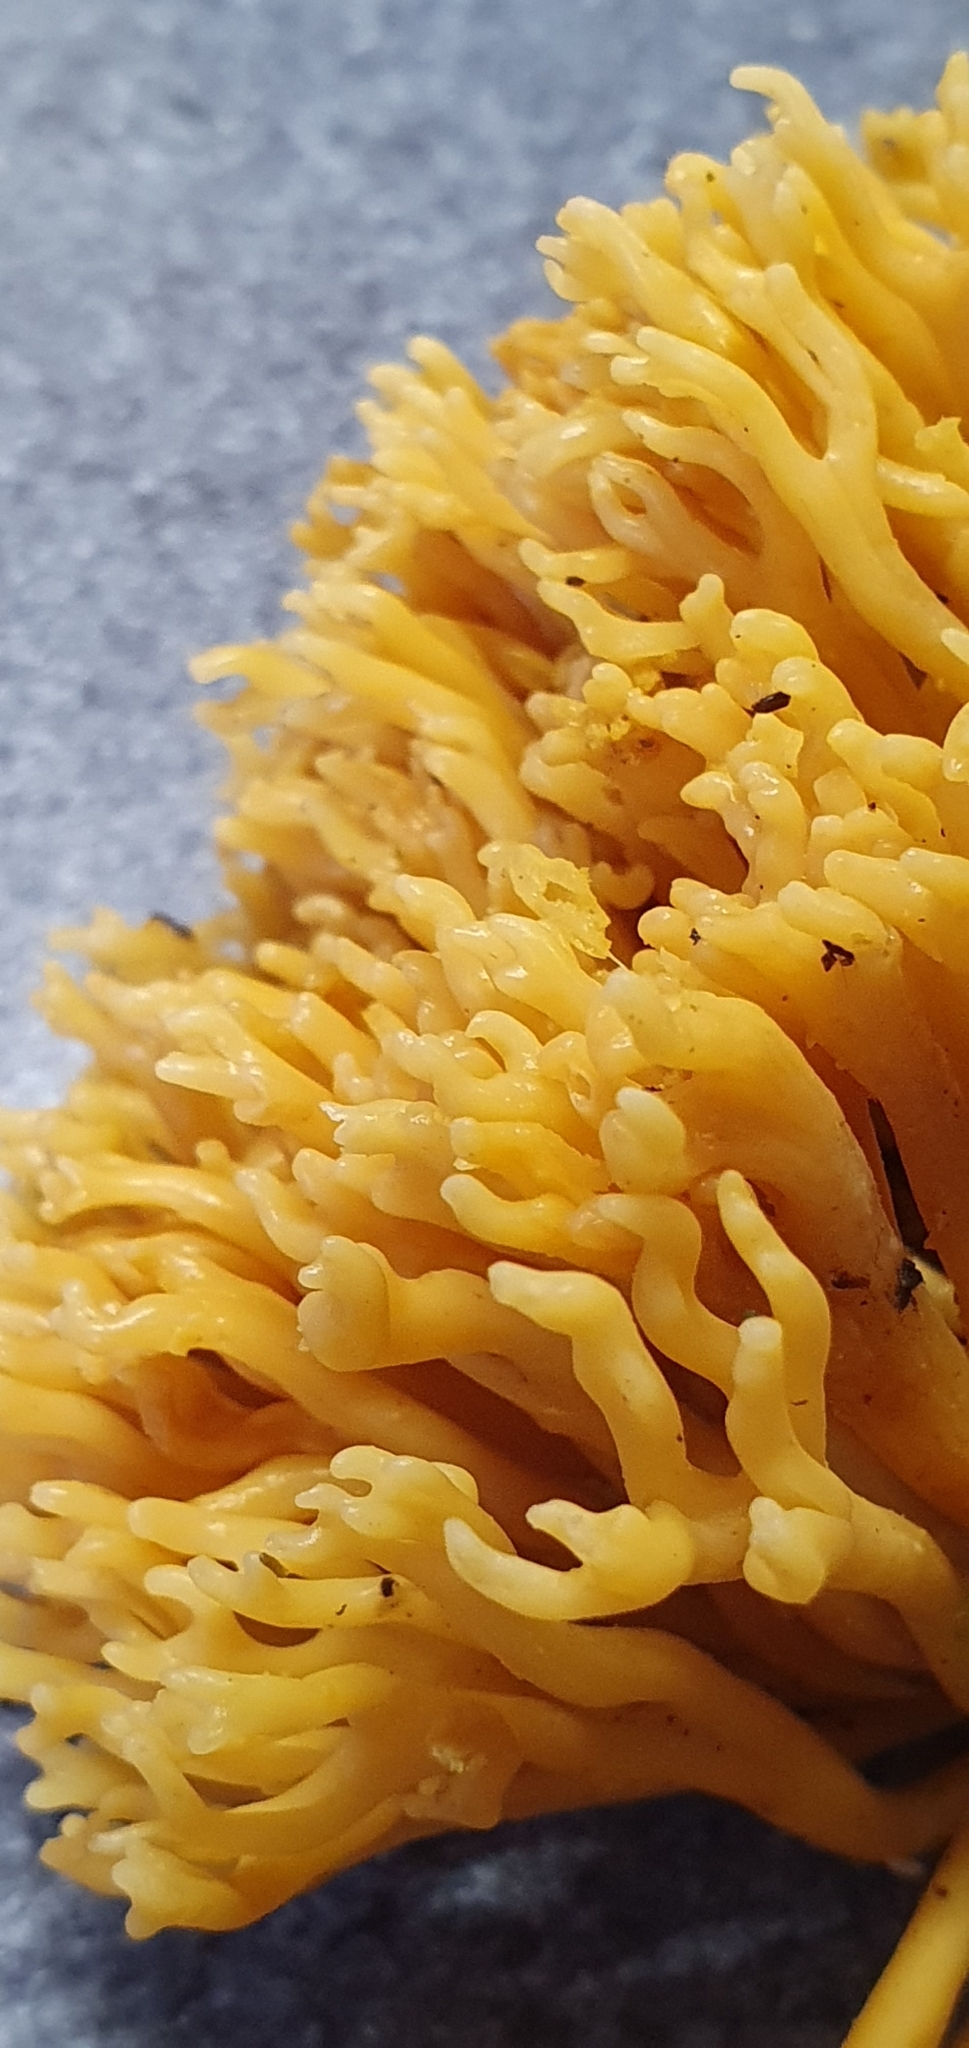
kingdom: Fungi
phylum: Basidiomycota
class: Agaricomycetes
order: Agaricales
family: Clavariaceae
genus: Clavulinopsis
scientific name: Clavulinopsis corniculata
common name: Meadow coral
